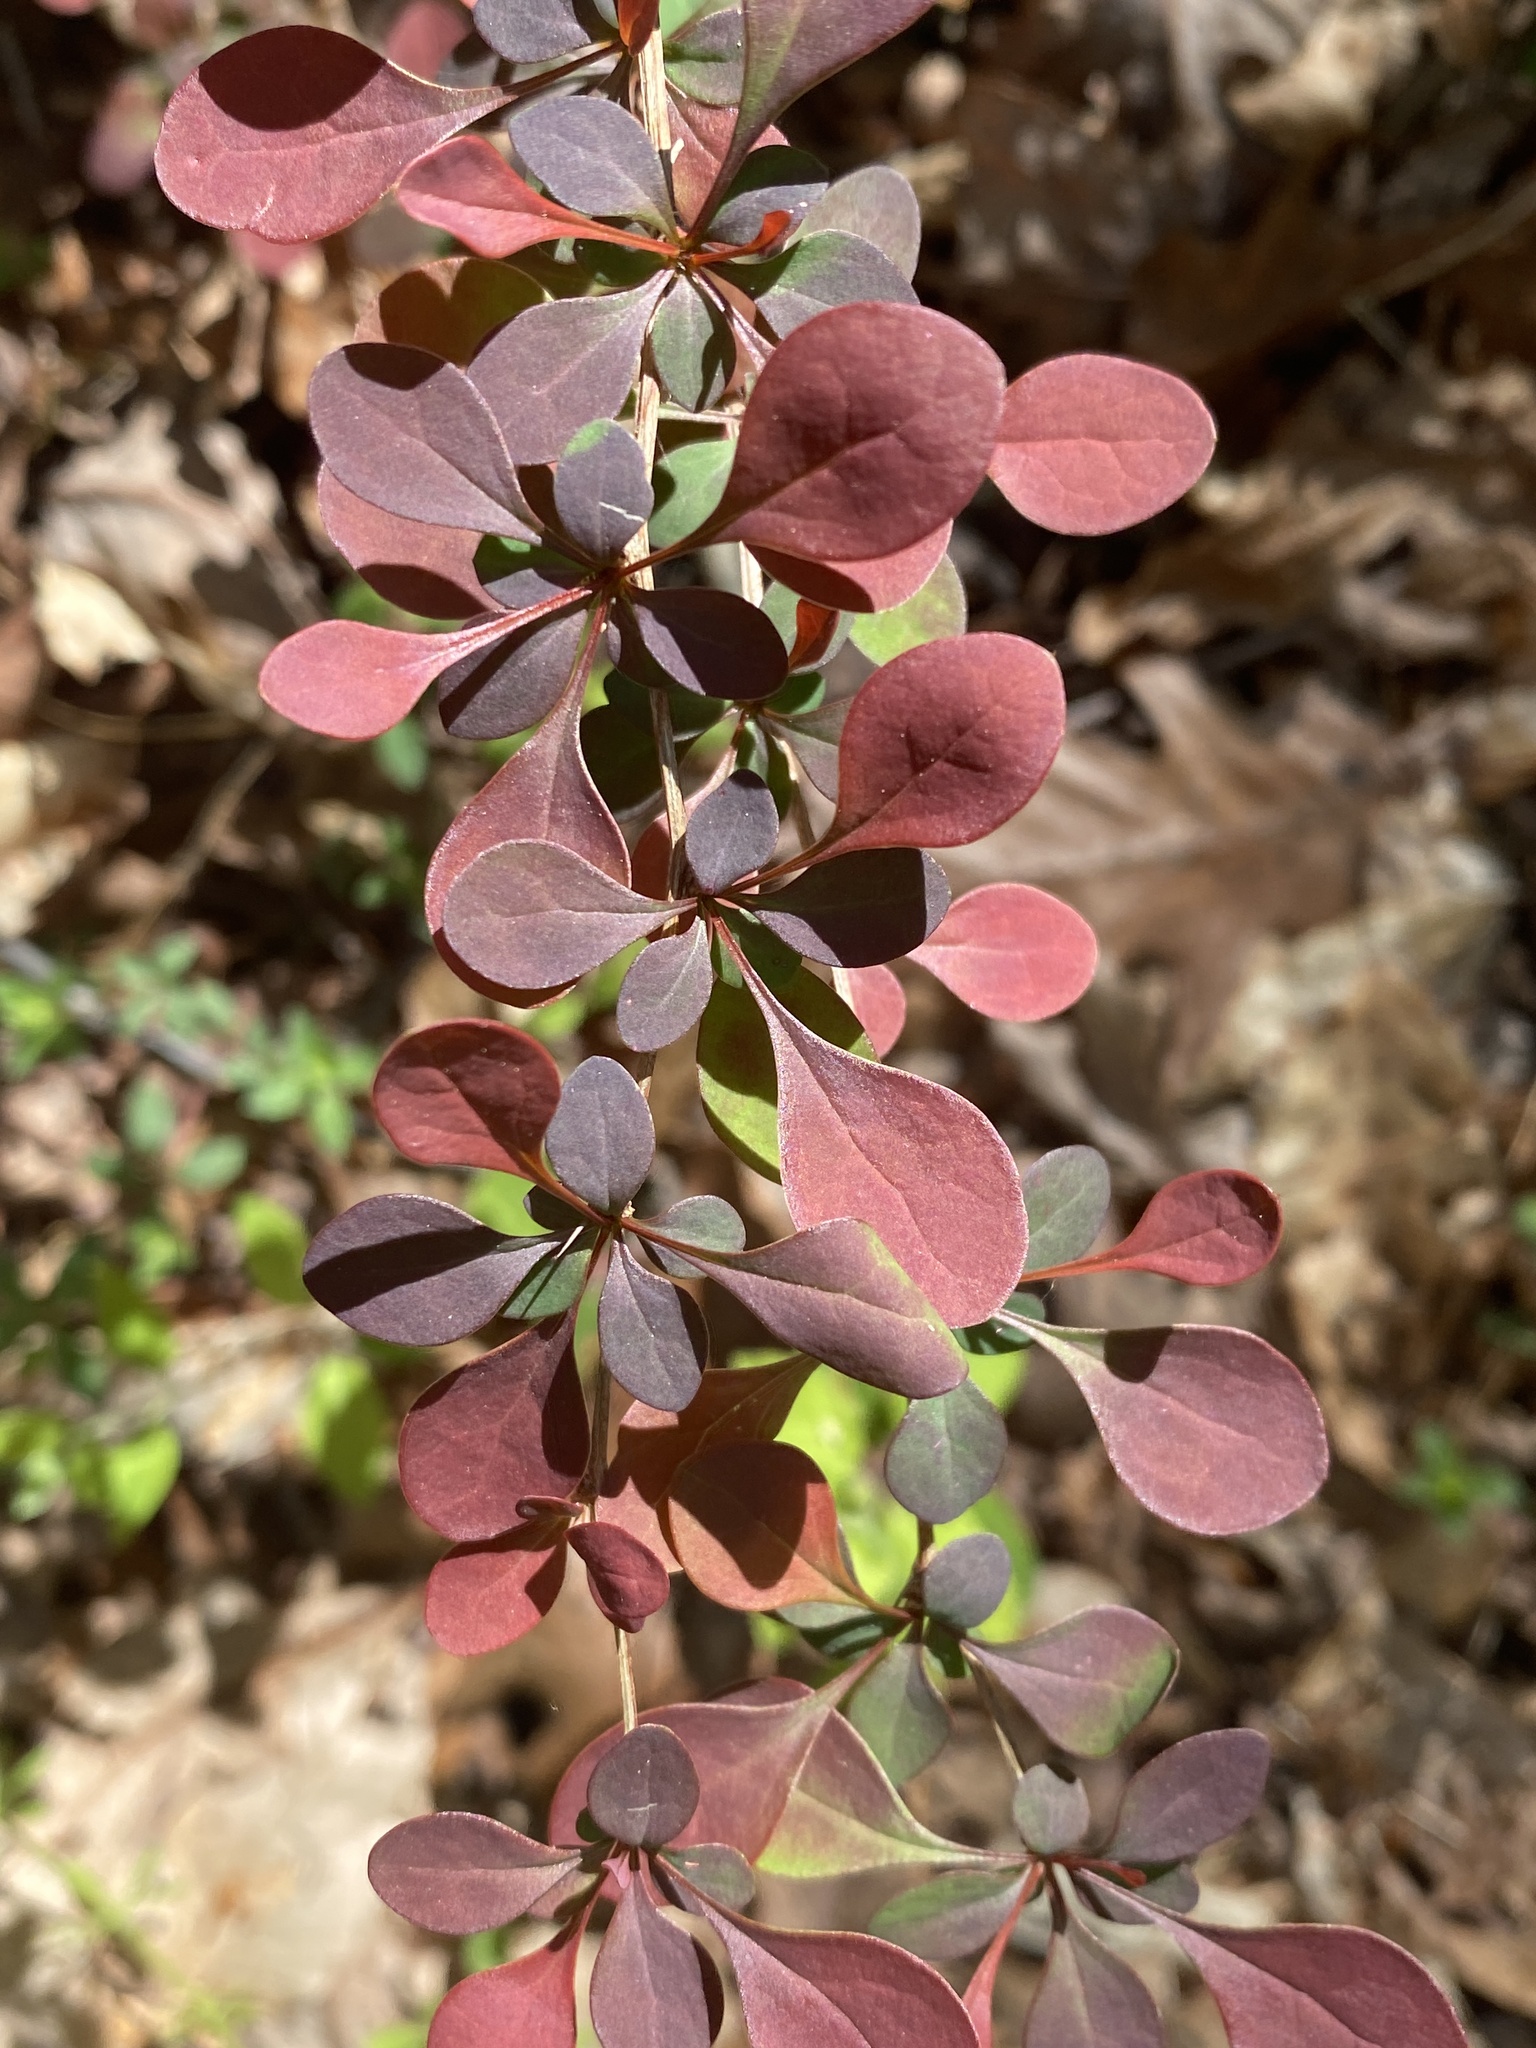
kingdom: Plantae
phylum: Tracheophyta
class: Magnoliopsida
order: Ranunculales
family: Berberidaceae
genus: Berberis
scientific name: Berberis thunbergii
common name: Japanese barberry
